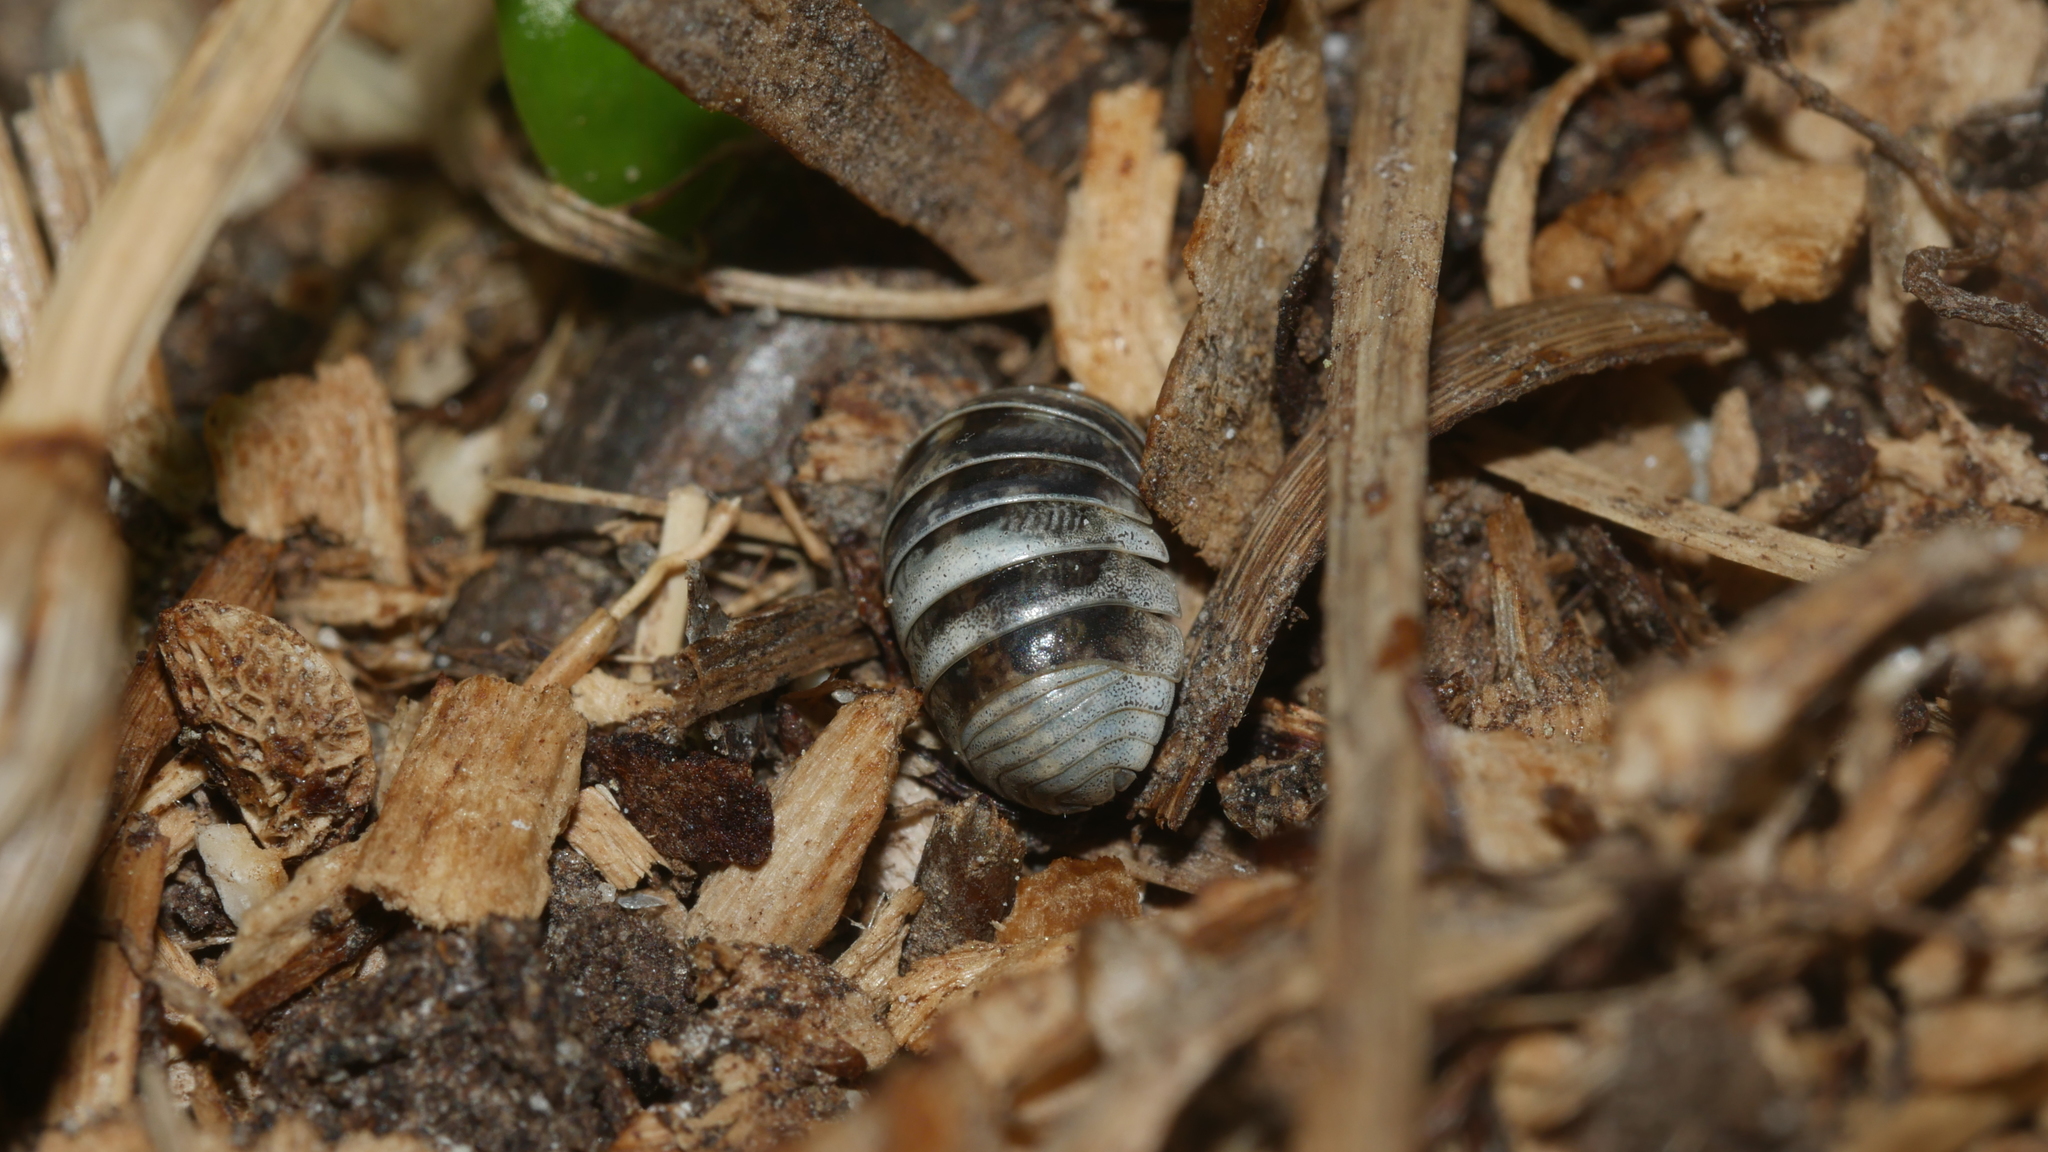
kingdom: Animalia
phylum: Arthropoda
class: Malacostraca
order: Isopoda
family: Armadillidiidae
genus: Armadillidium
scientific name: Armadillidium vulgare
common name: Common pill woodlouse
